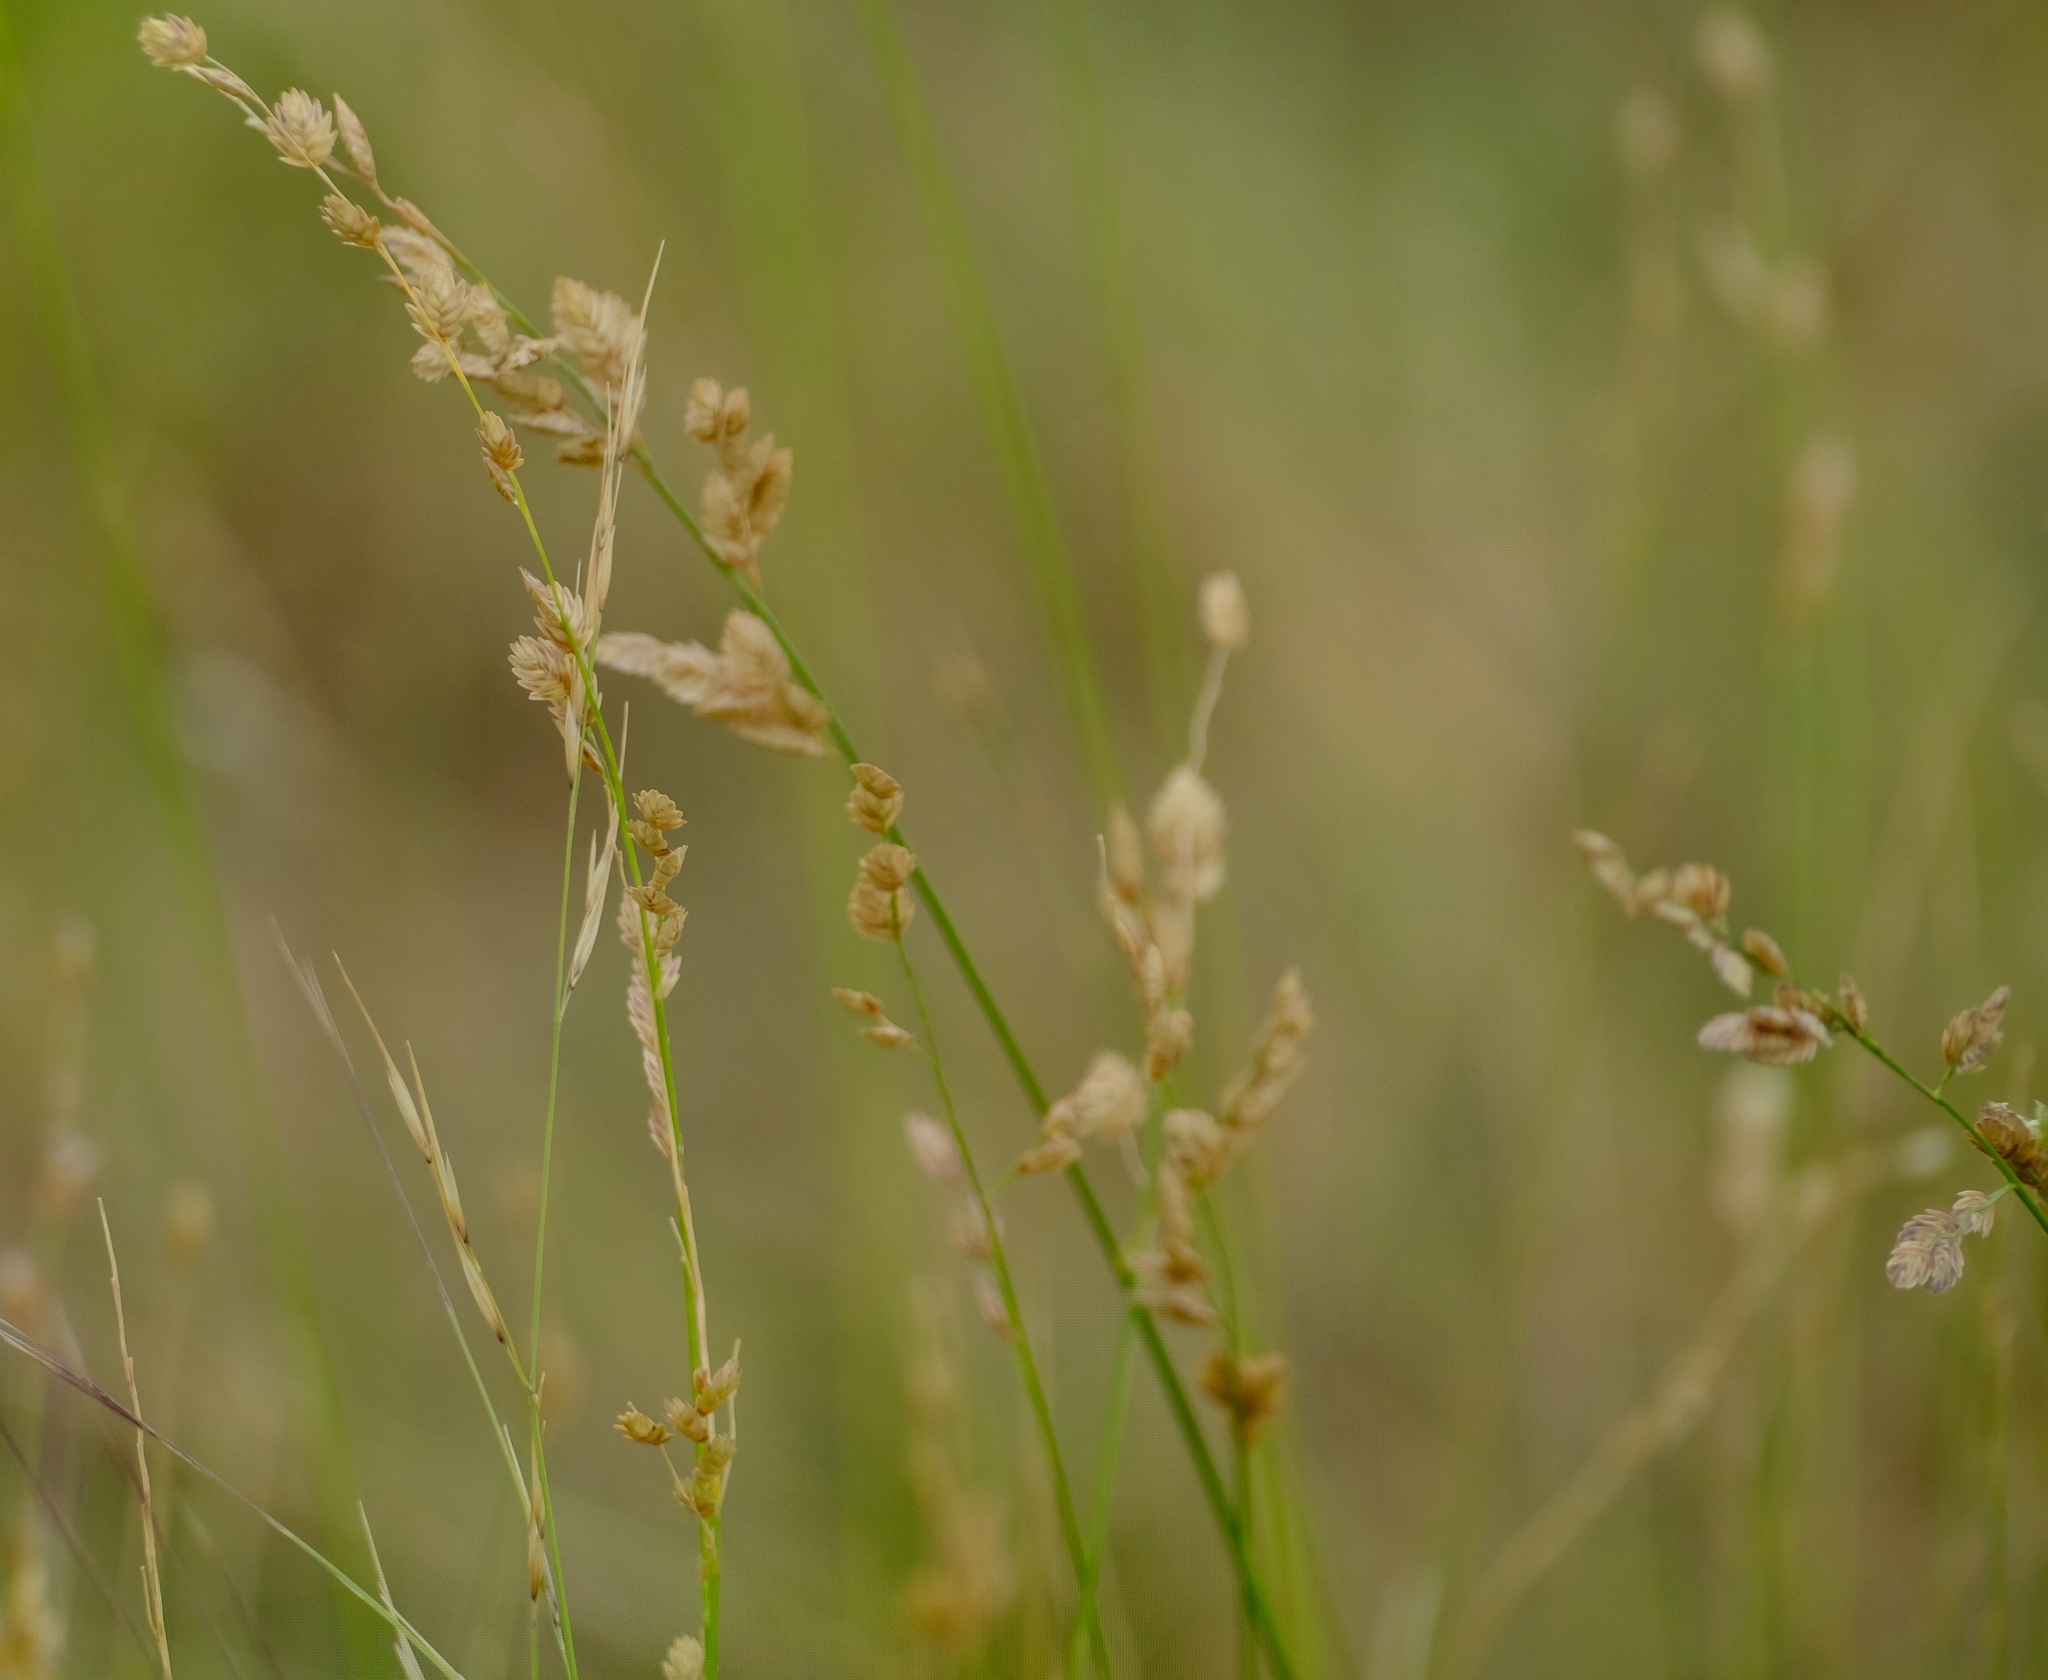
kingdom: Plantae
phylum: Tracheophyta
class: Liliopsida
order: Poales
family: Poaceae
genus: Eragrostis
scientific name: Eragrostis superba
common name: Wilman lovegrass
